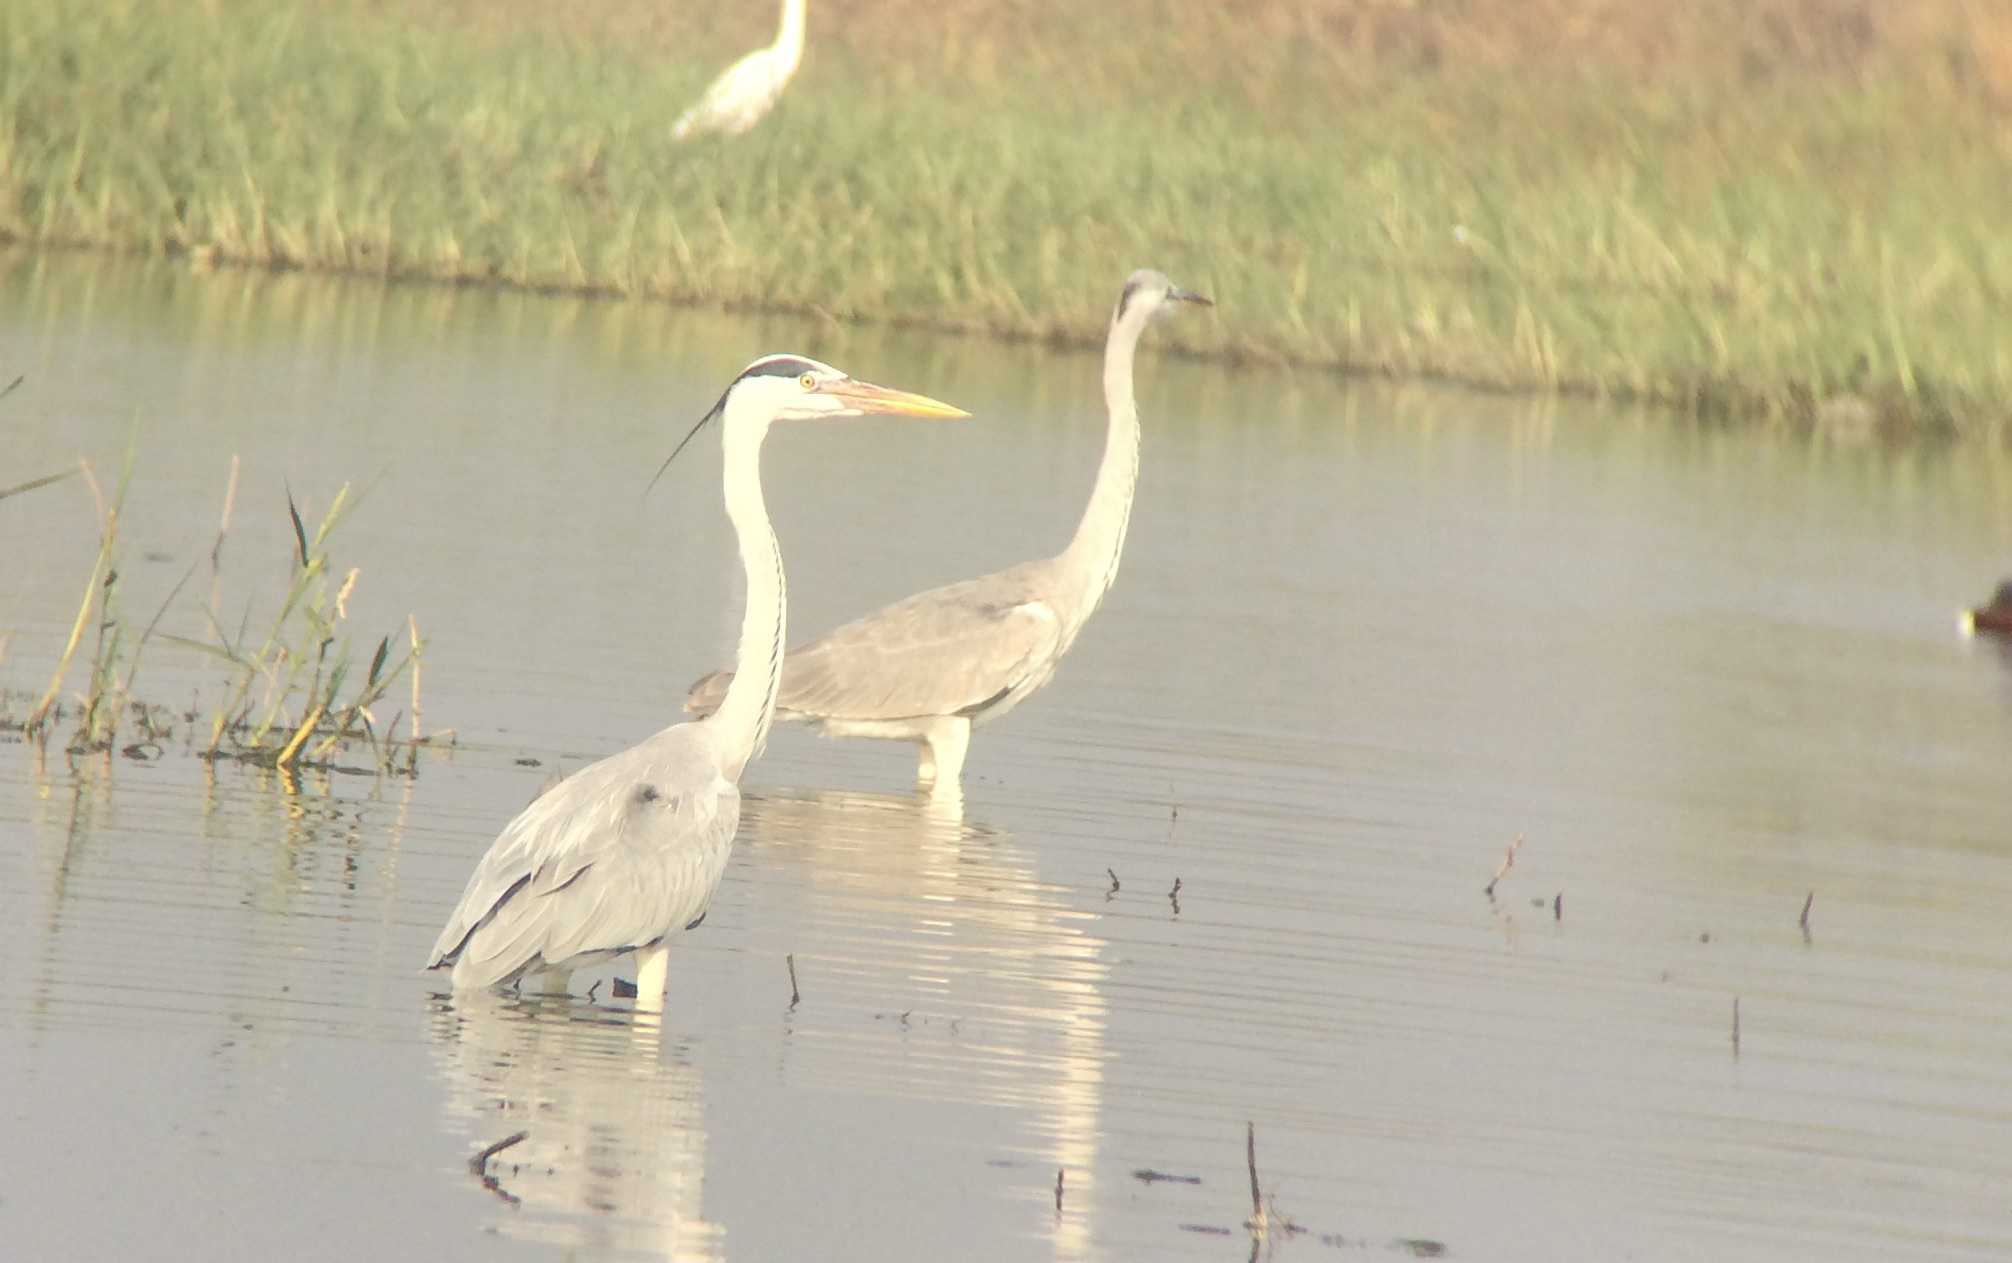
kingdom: Animalia
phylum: Chordata
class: Aves
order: Pelecaniformes
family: Ardeidae
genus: Ardea
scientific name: Ardea cinerea
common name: Grey heron
